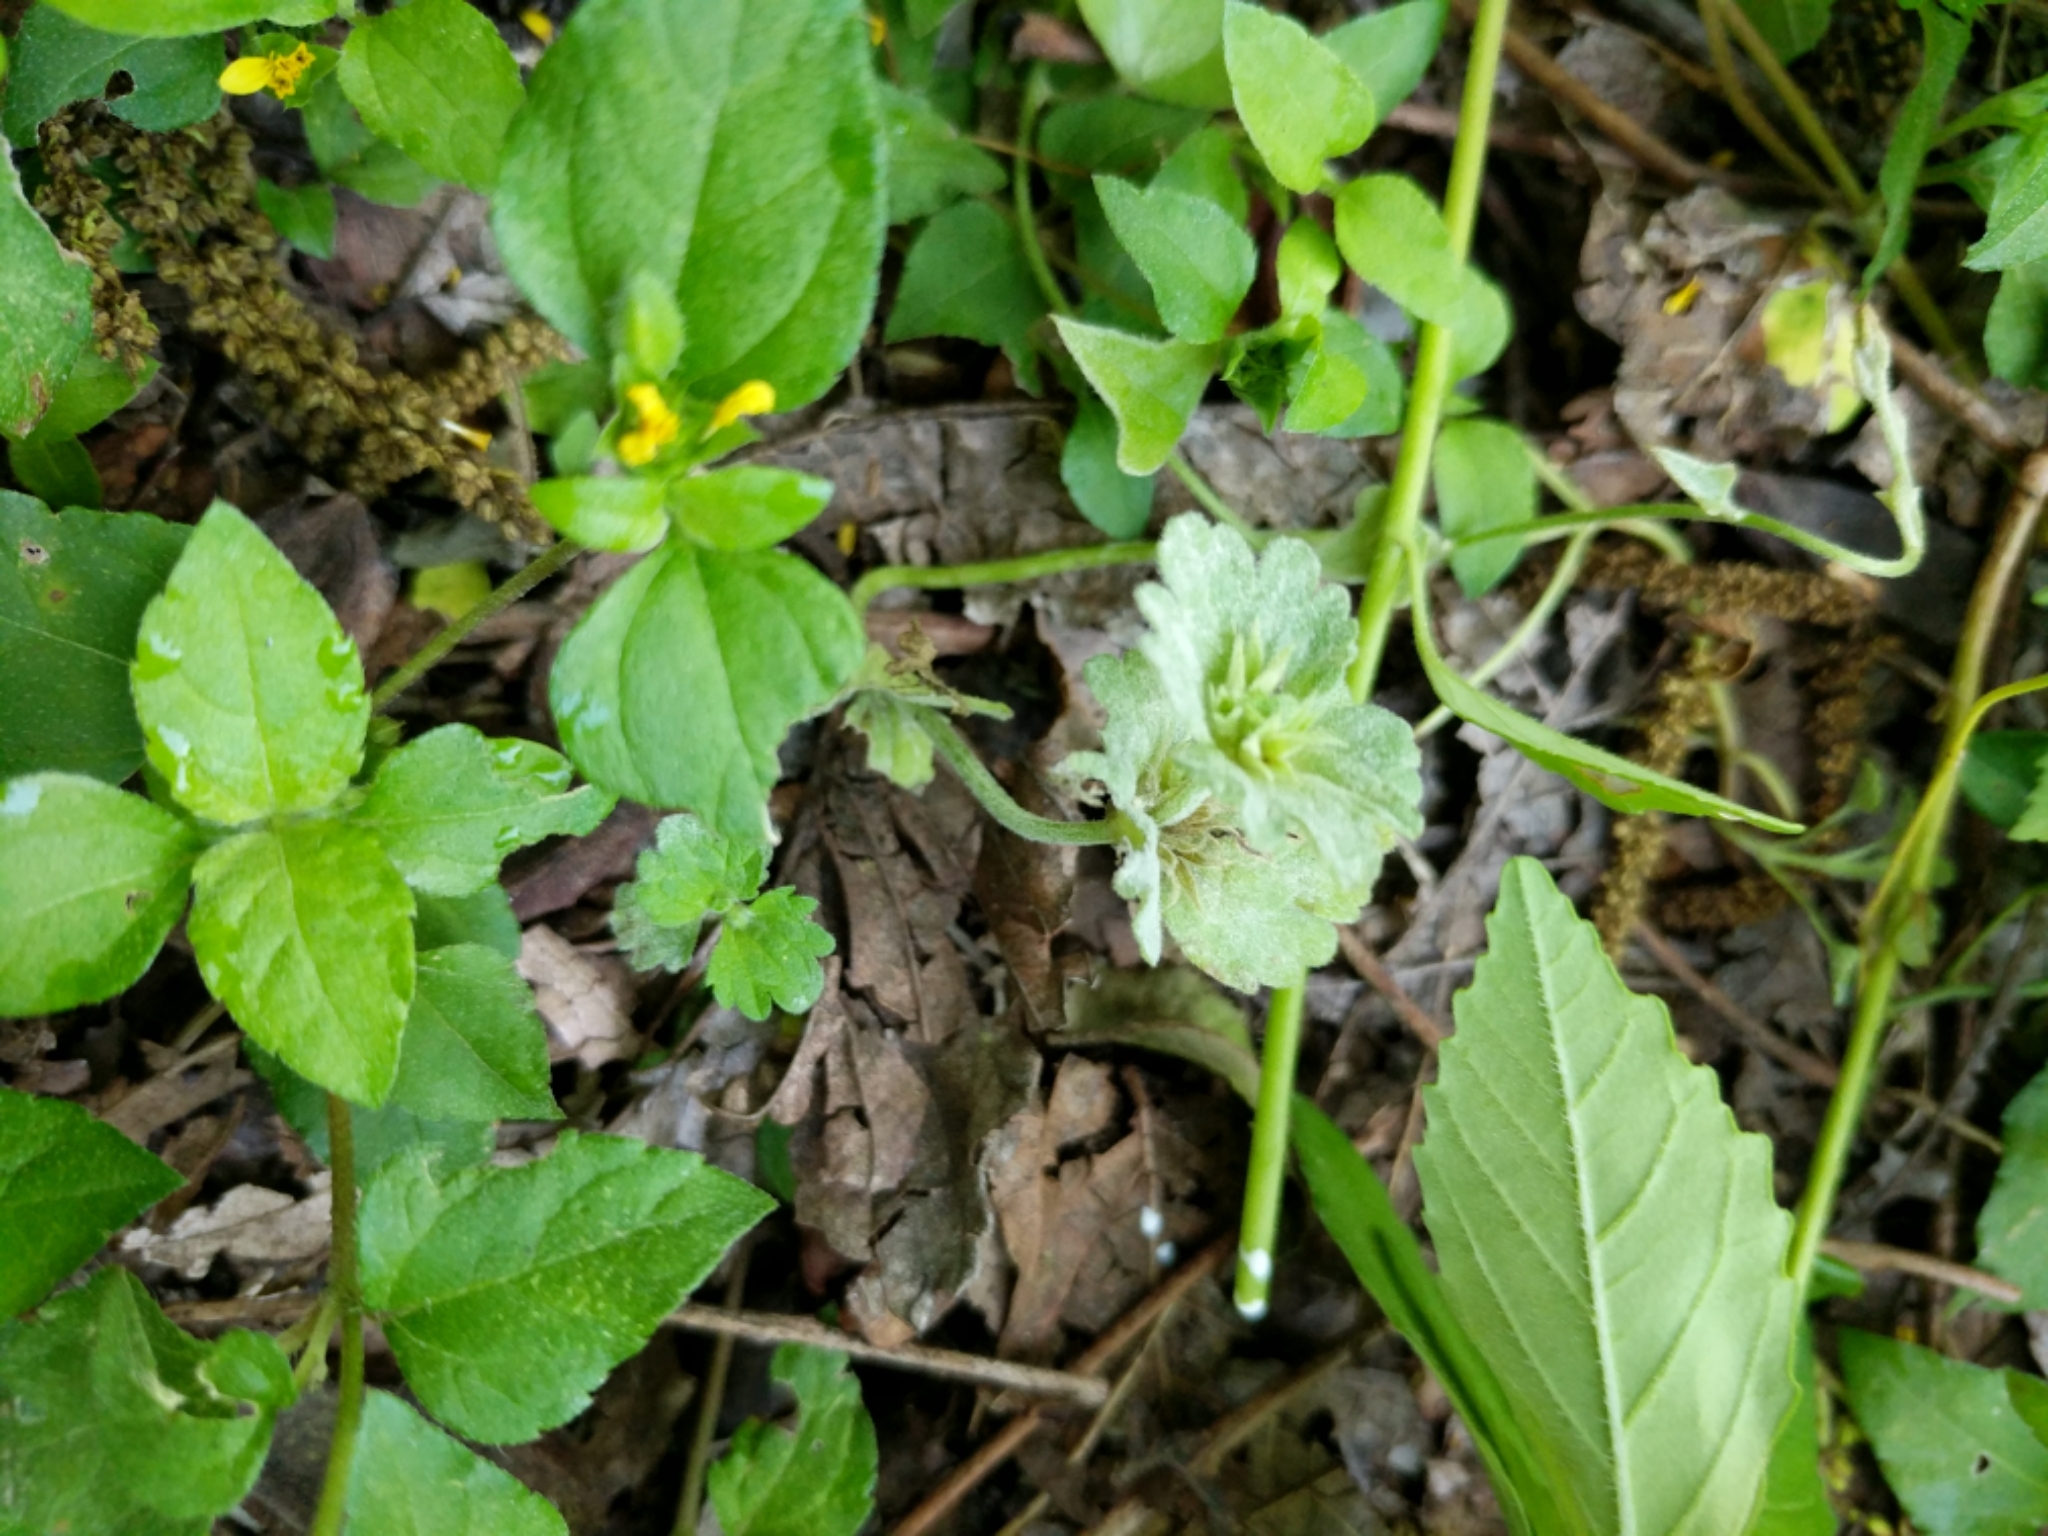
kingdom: Plantae
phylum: Tracheophyta
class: Magnoliopsida
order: Lamiales
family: Lamiaceae
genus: Lamium
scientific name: Lamium amplexicaule
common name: Henbit dead-nettle
